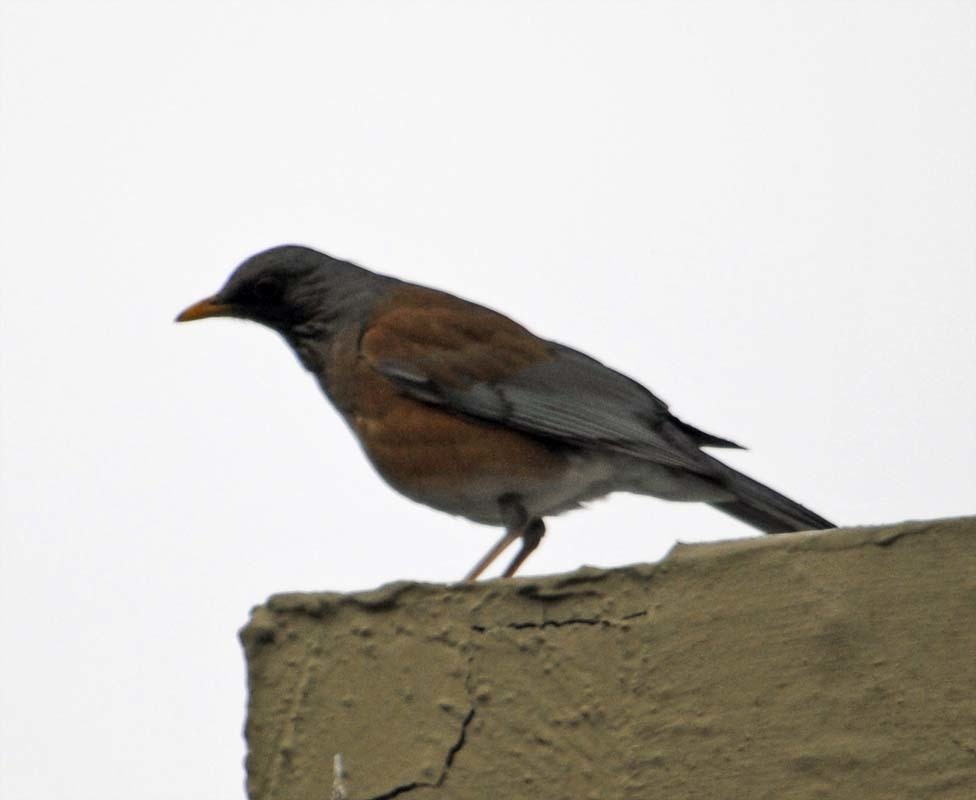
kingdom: Animalia
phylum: Chordata
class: Aves
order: Passeriformes
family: Turdidae
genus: Turdus
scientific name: Turdus rufopalliatus
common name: Rufous-backed robin
